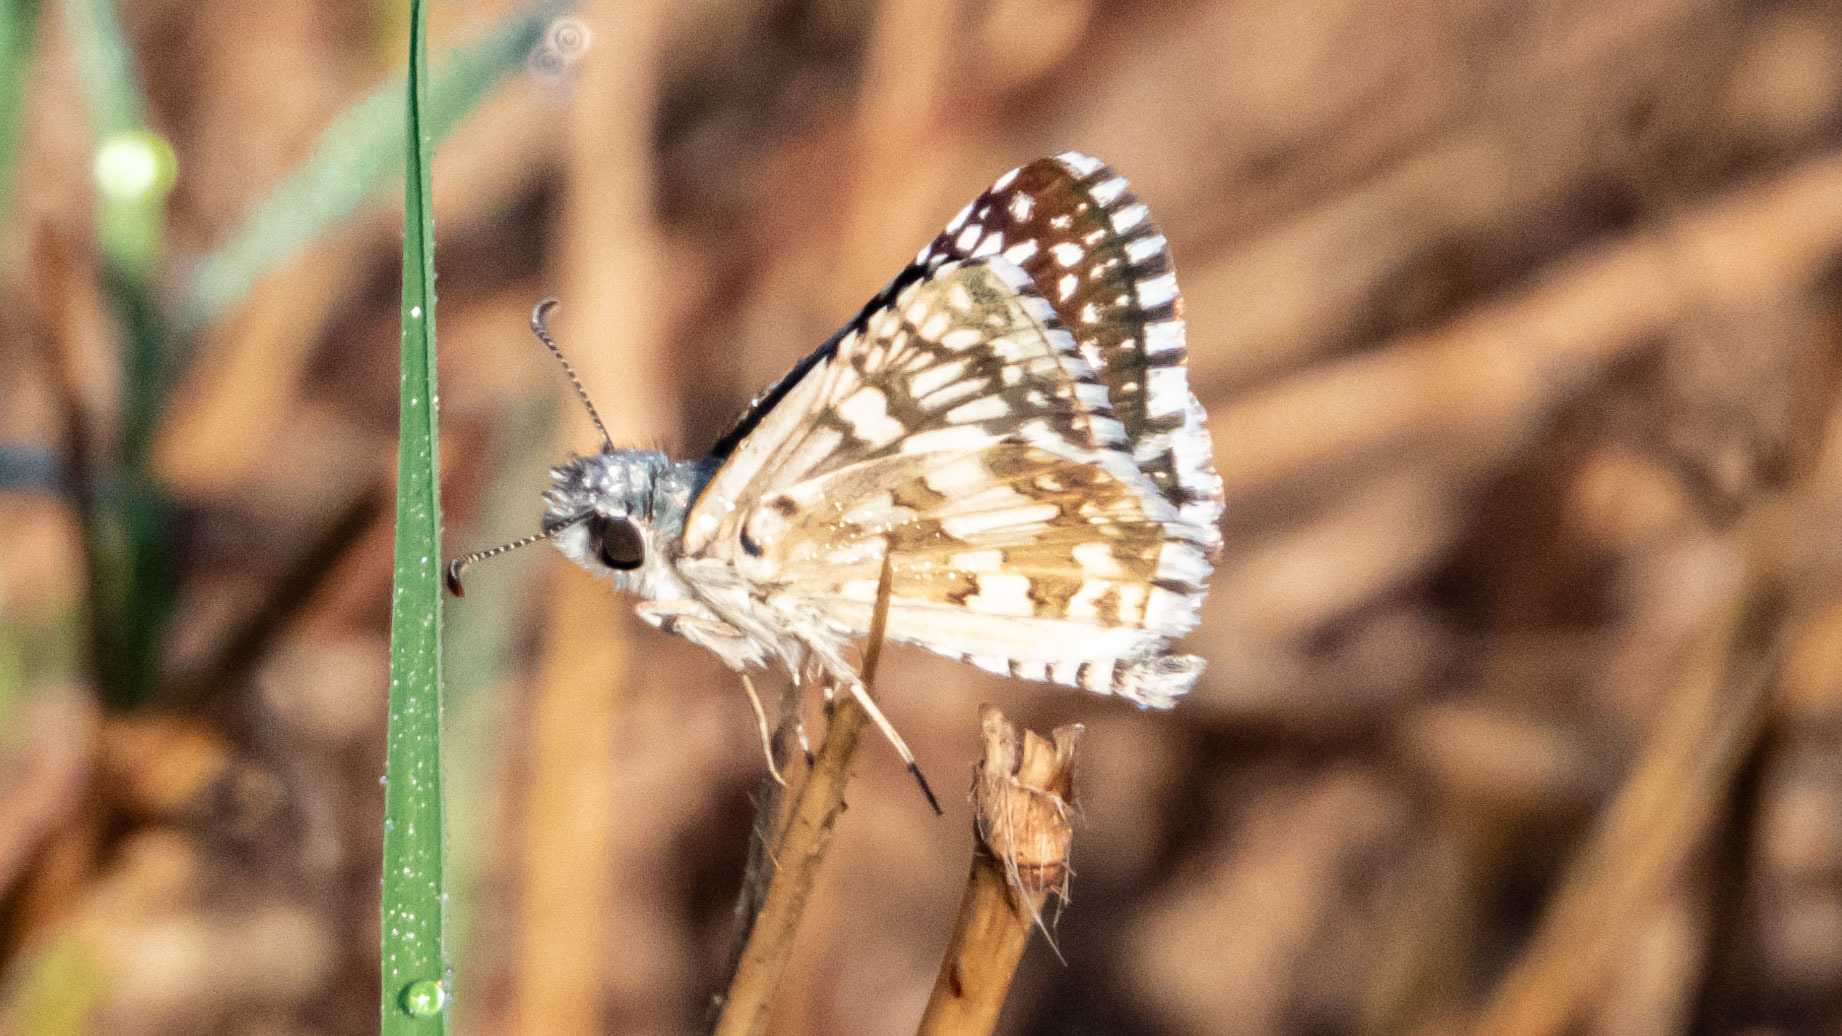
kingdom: Animalia
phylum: Arthropoda
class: Insecta
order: Lepidoptera
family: Hesperiidae
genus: Burnsius
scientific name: Burnsius communis
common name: Common checkered-skipper
